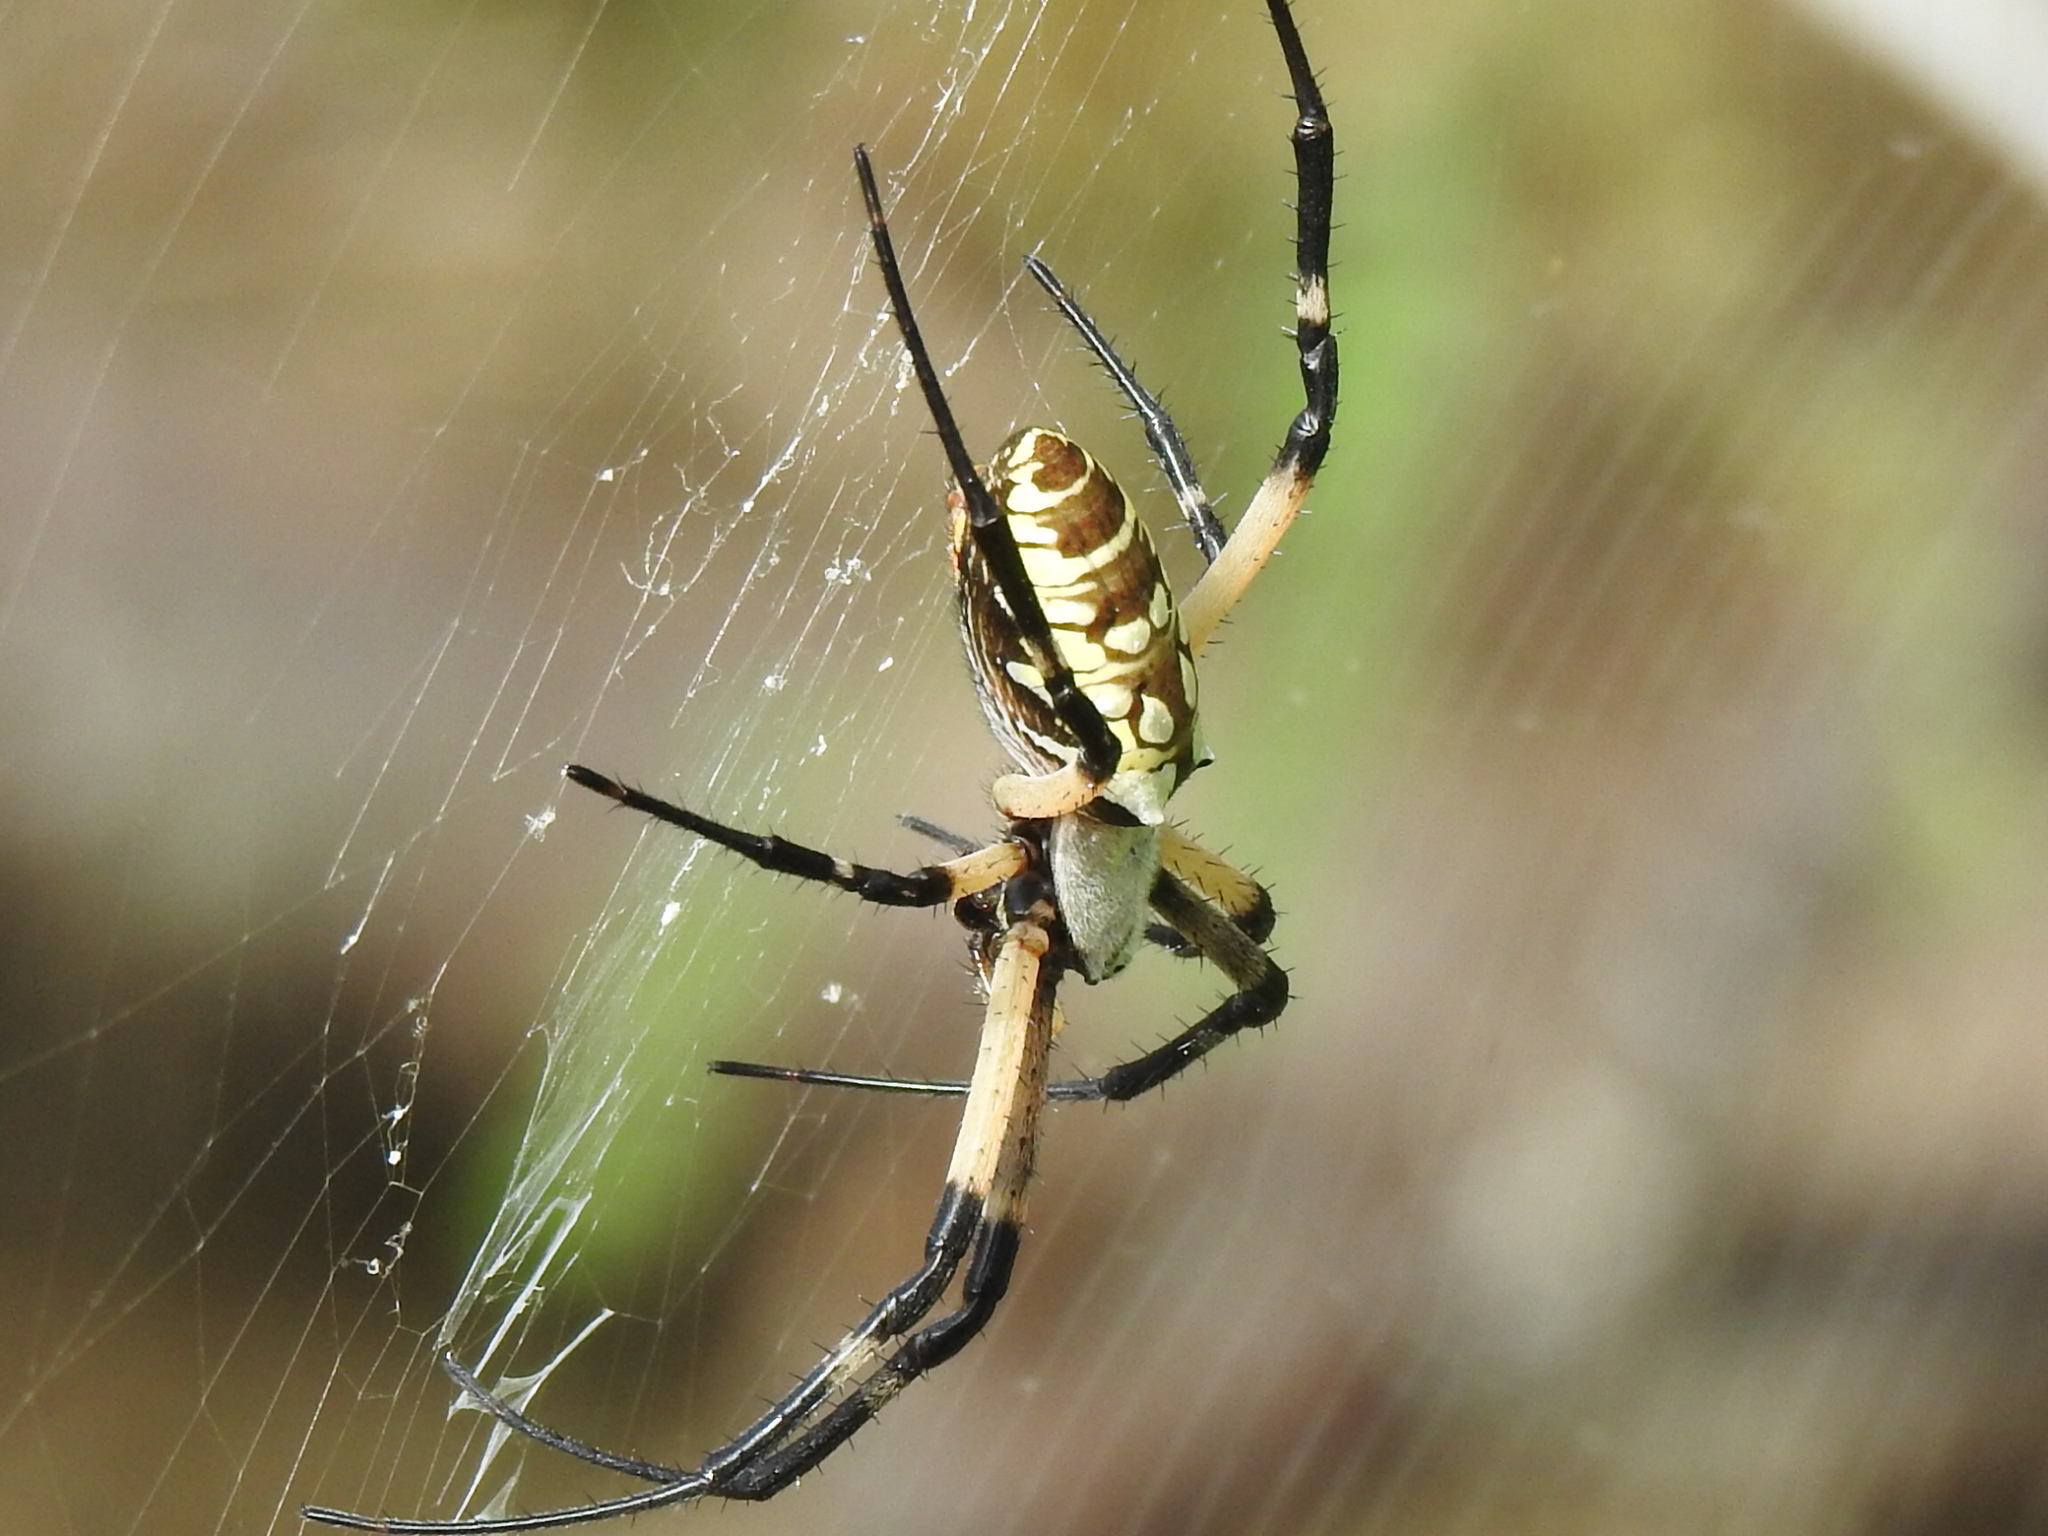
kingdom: Animalia
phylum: Arthropoda
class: Arachnida
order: Araneae
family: Araneidae
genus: Argiope
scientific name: Argiope aurantia
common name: Orb weavers
